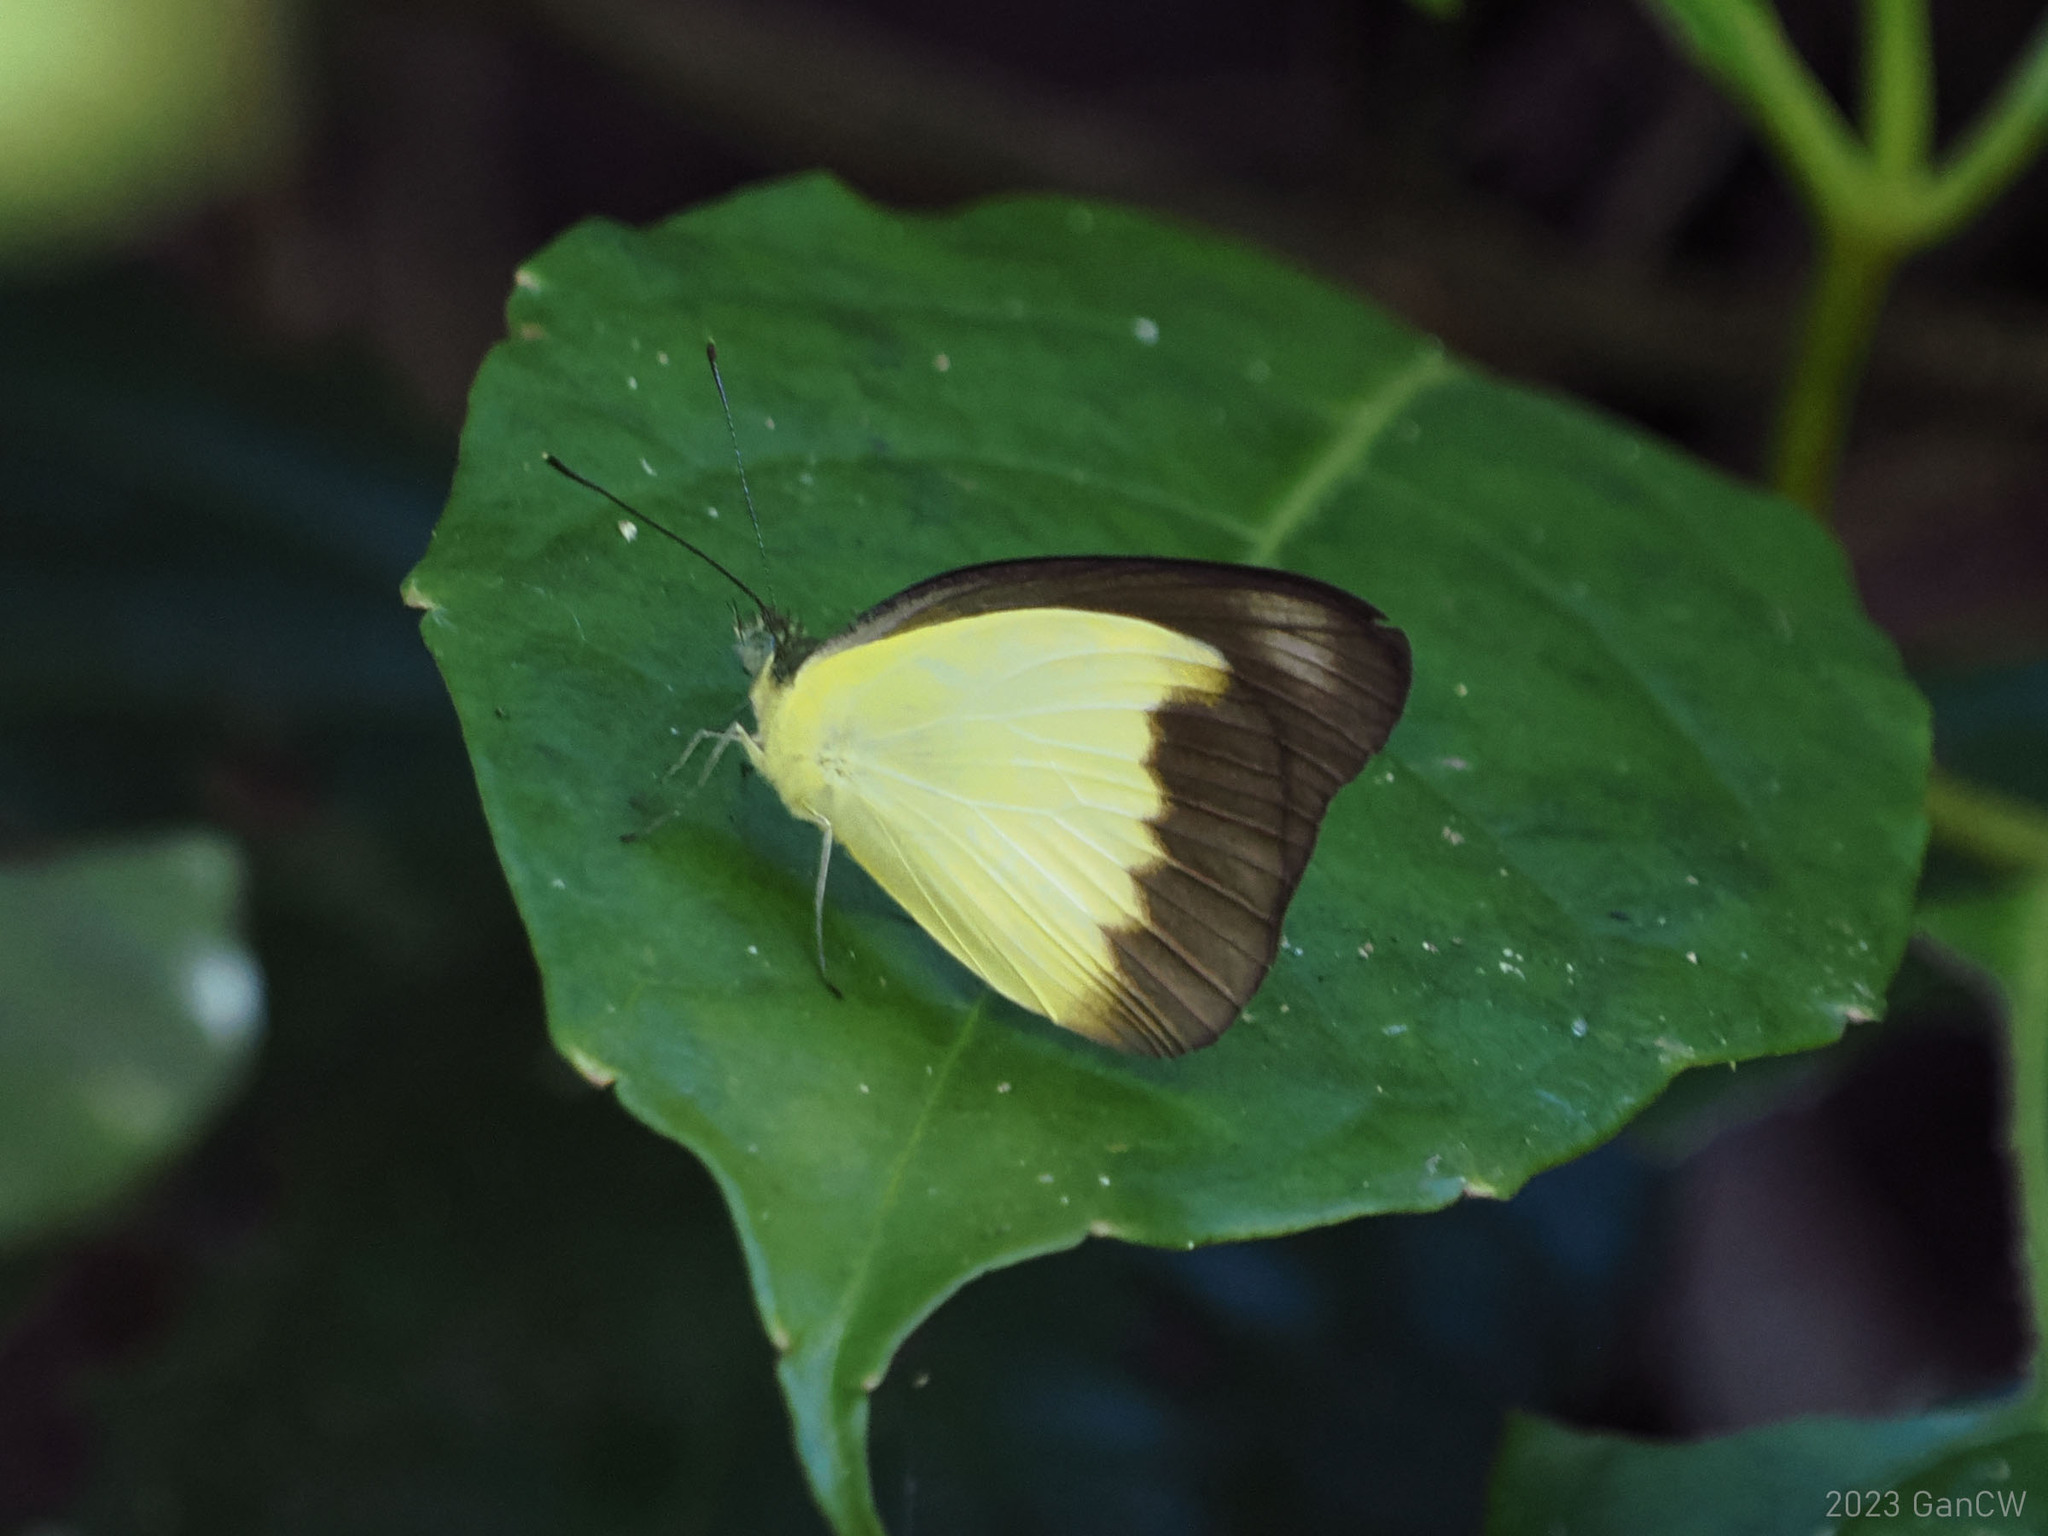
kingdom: Animalia
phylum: Arthropoda
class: Insecta
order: Lepidoptera
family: Pieridae
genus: Appias
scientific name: Appias lyncida
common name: Chocolate albatross
